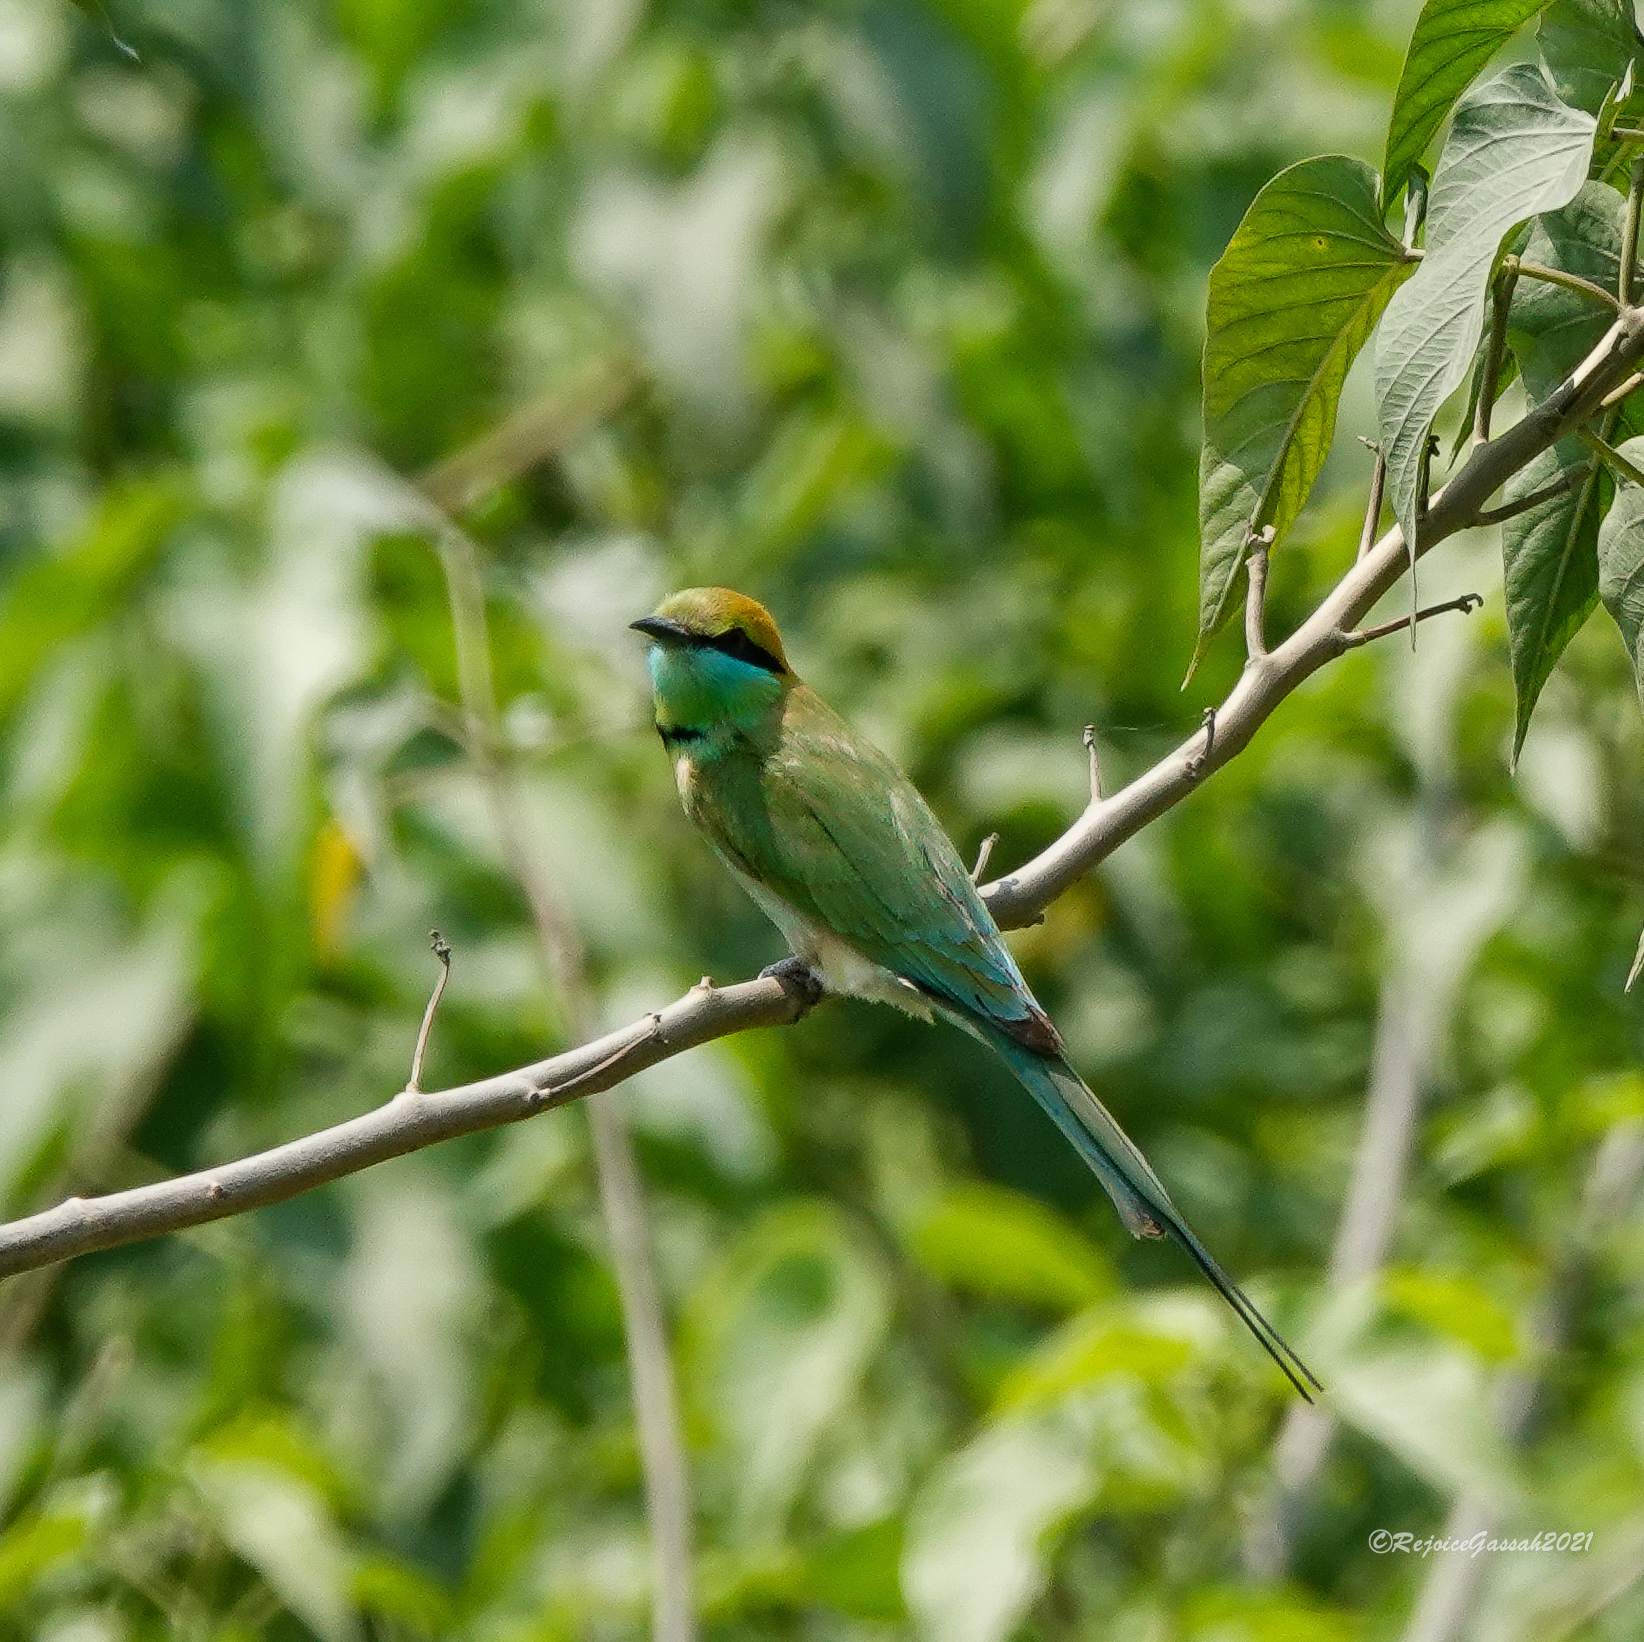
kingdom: Animalia
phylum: Chordata
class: Aves
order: Coraciiformes
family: Meropidae
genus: Merops
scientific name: Merops orientalis
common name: Green bee-eater
